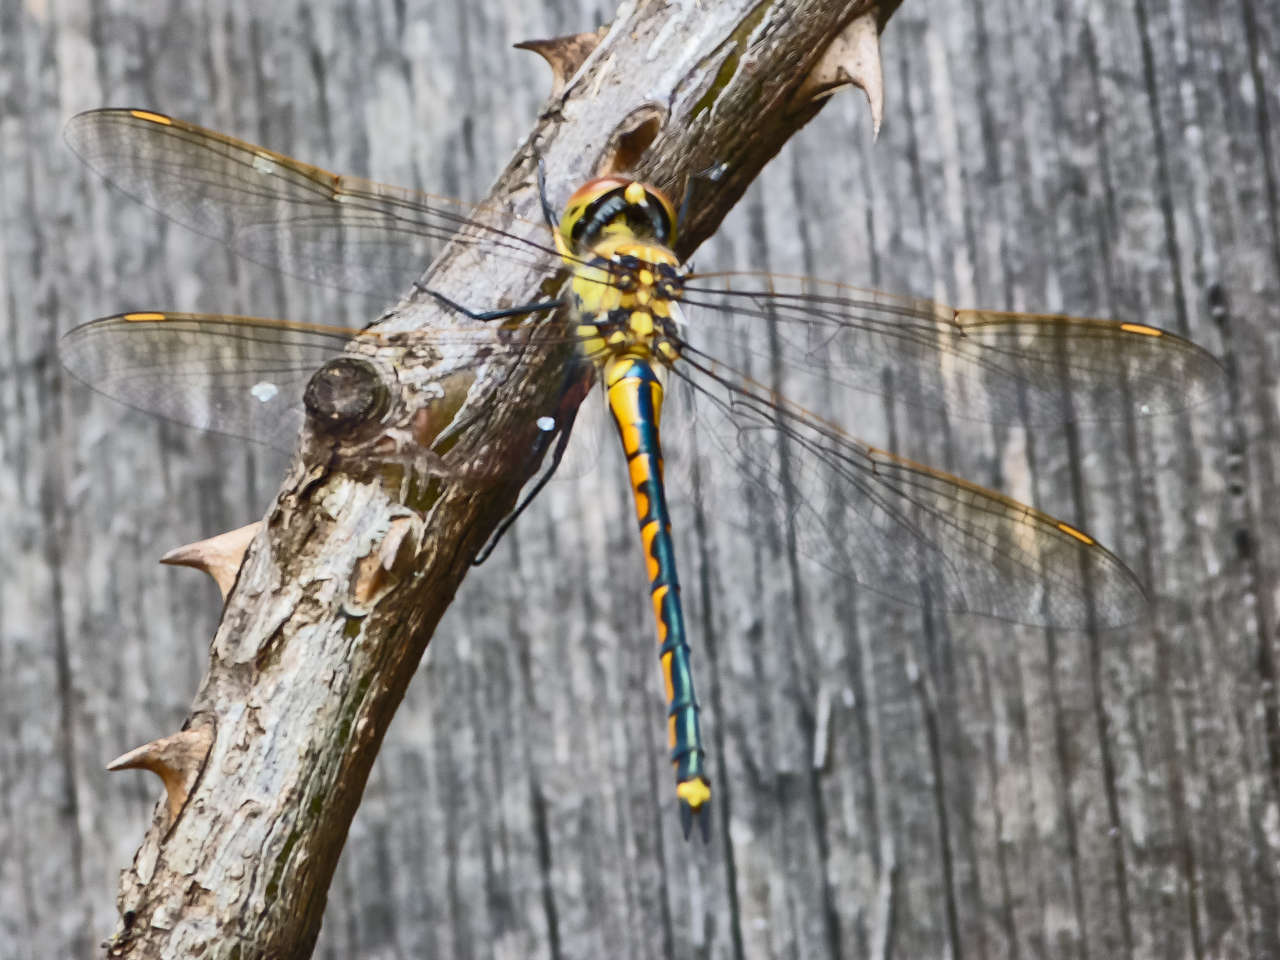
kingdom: Animalia
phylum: Arthropoda
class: Insecta
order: Odonata
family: Corduliidae
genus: Hemicordulia
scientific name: Hemicordulia tau
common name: Tau emerald
